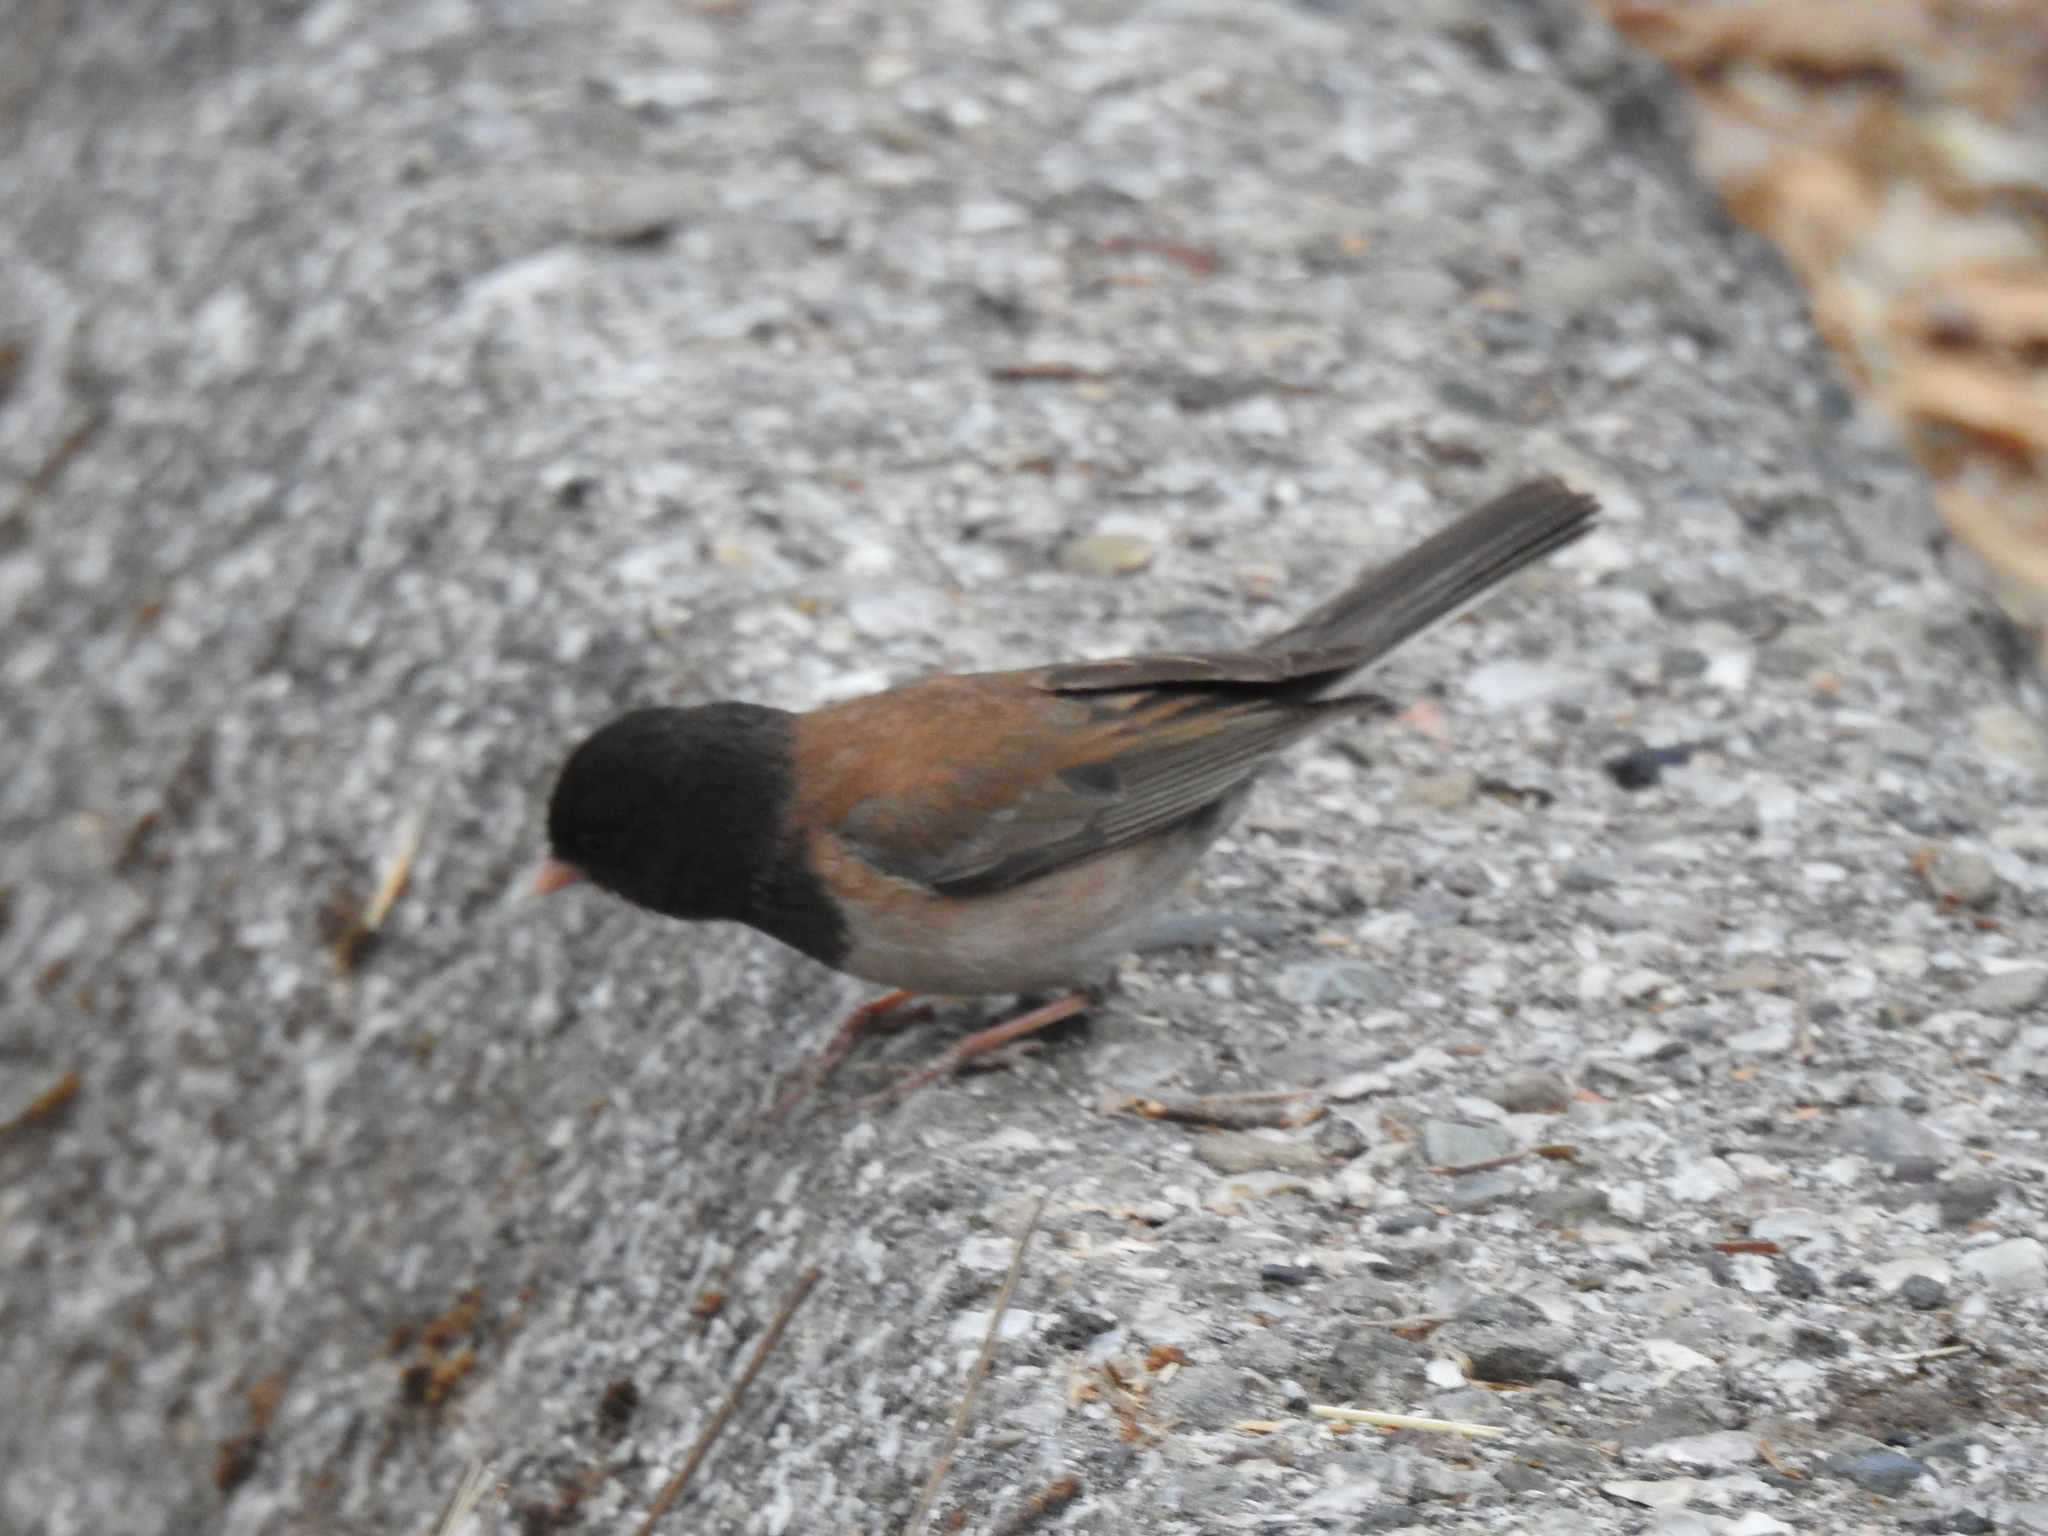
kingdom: Animalia
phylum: Chordata
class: Aves
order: Passeriformes
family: Passerellidae
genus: Junco
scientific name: Junco hyemalis
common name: Dark-eyed junco
